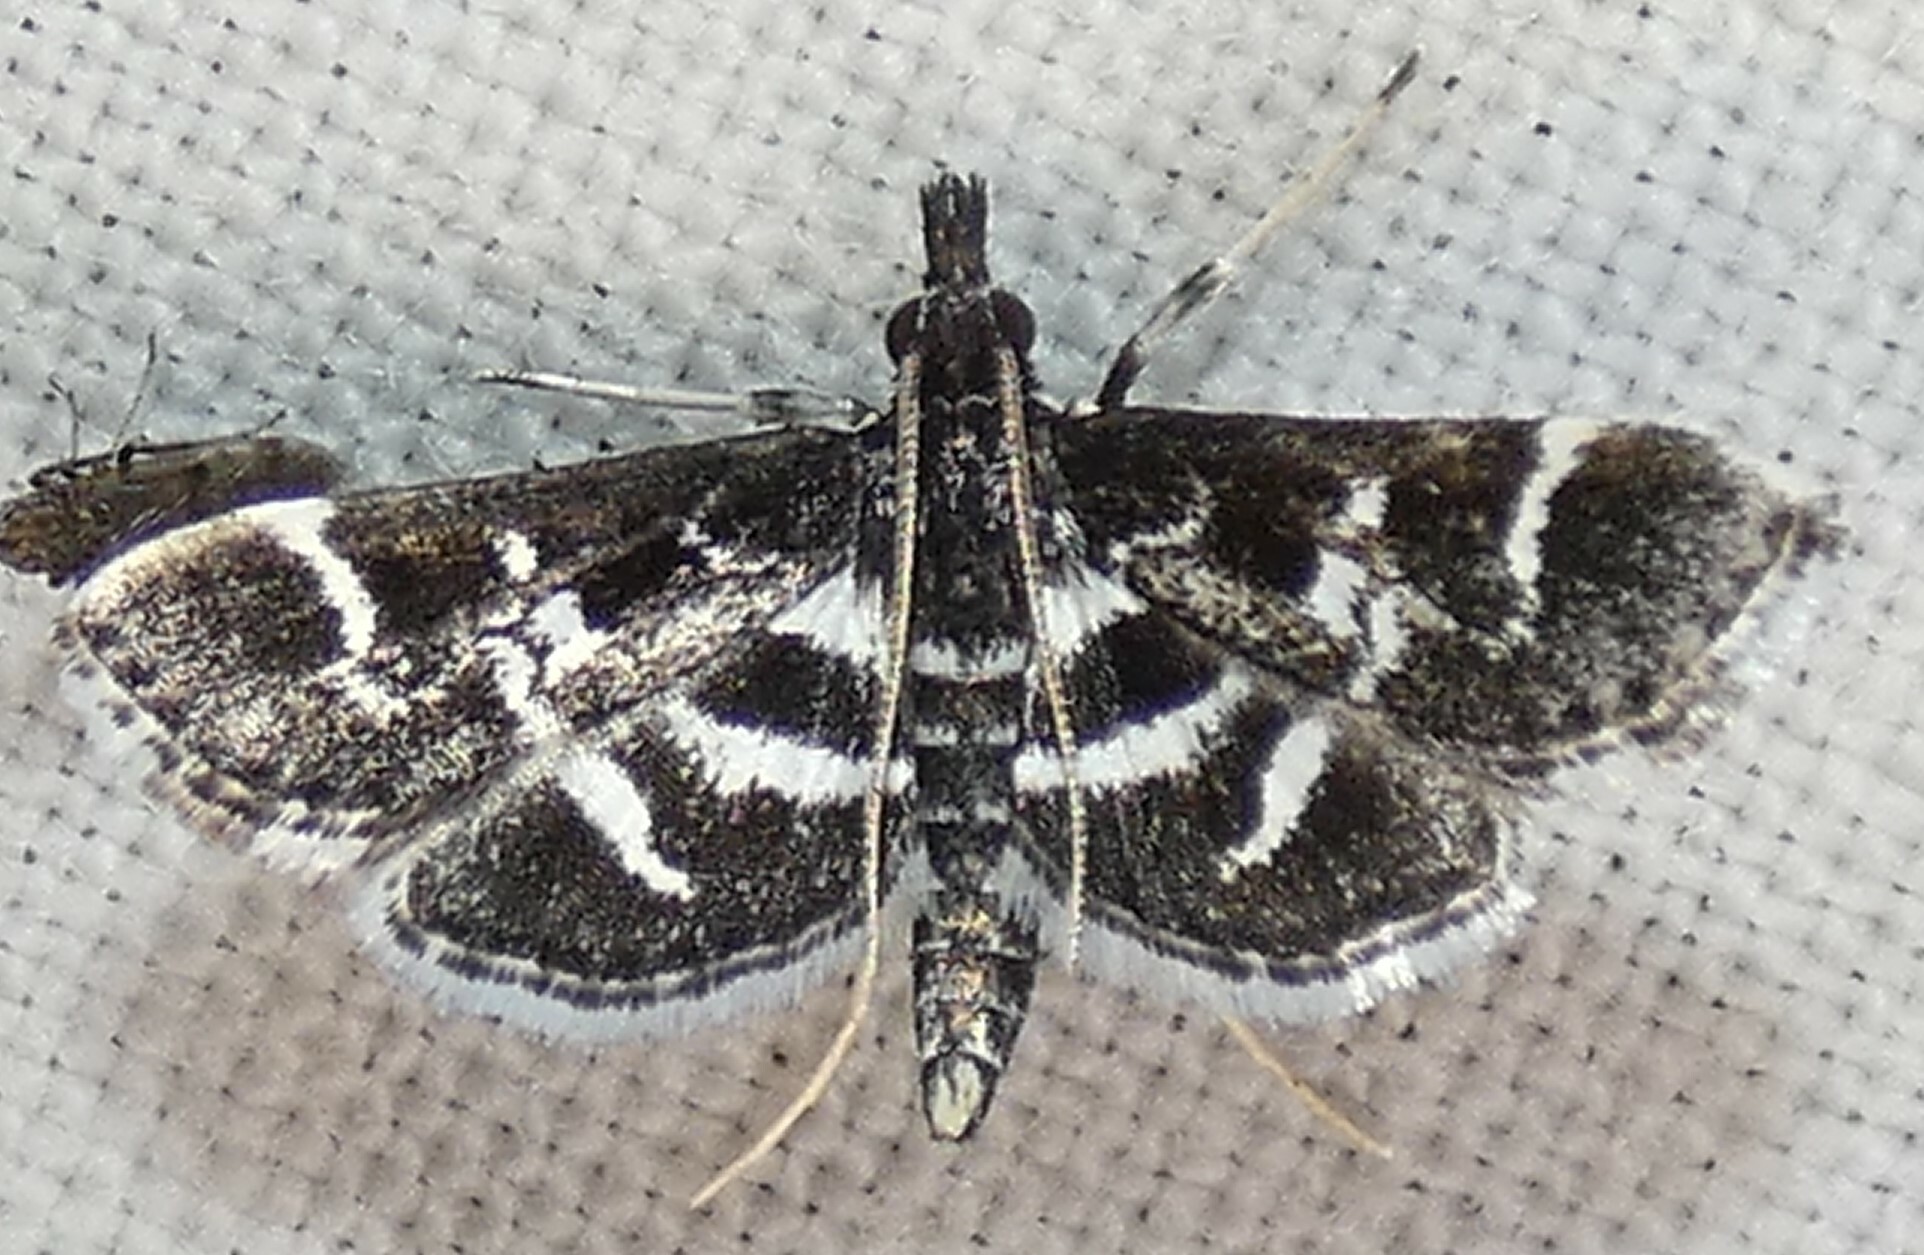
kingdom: Animalia
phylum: Arthropoda
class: Insecta
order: Lepidoptera
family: Crambidae
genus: Diasemiodes
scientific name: Diasemiodes janassialis
